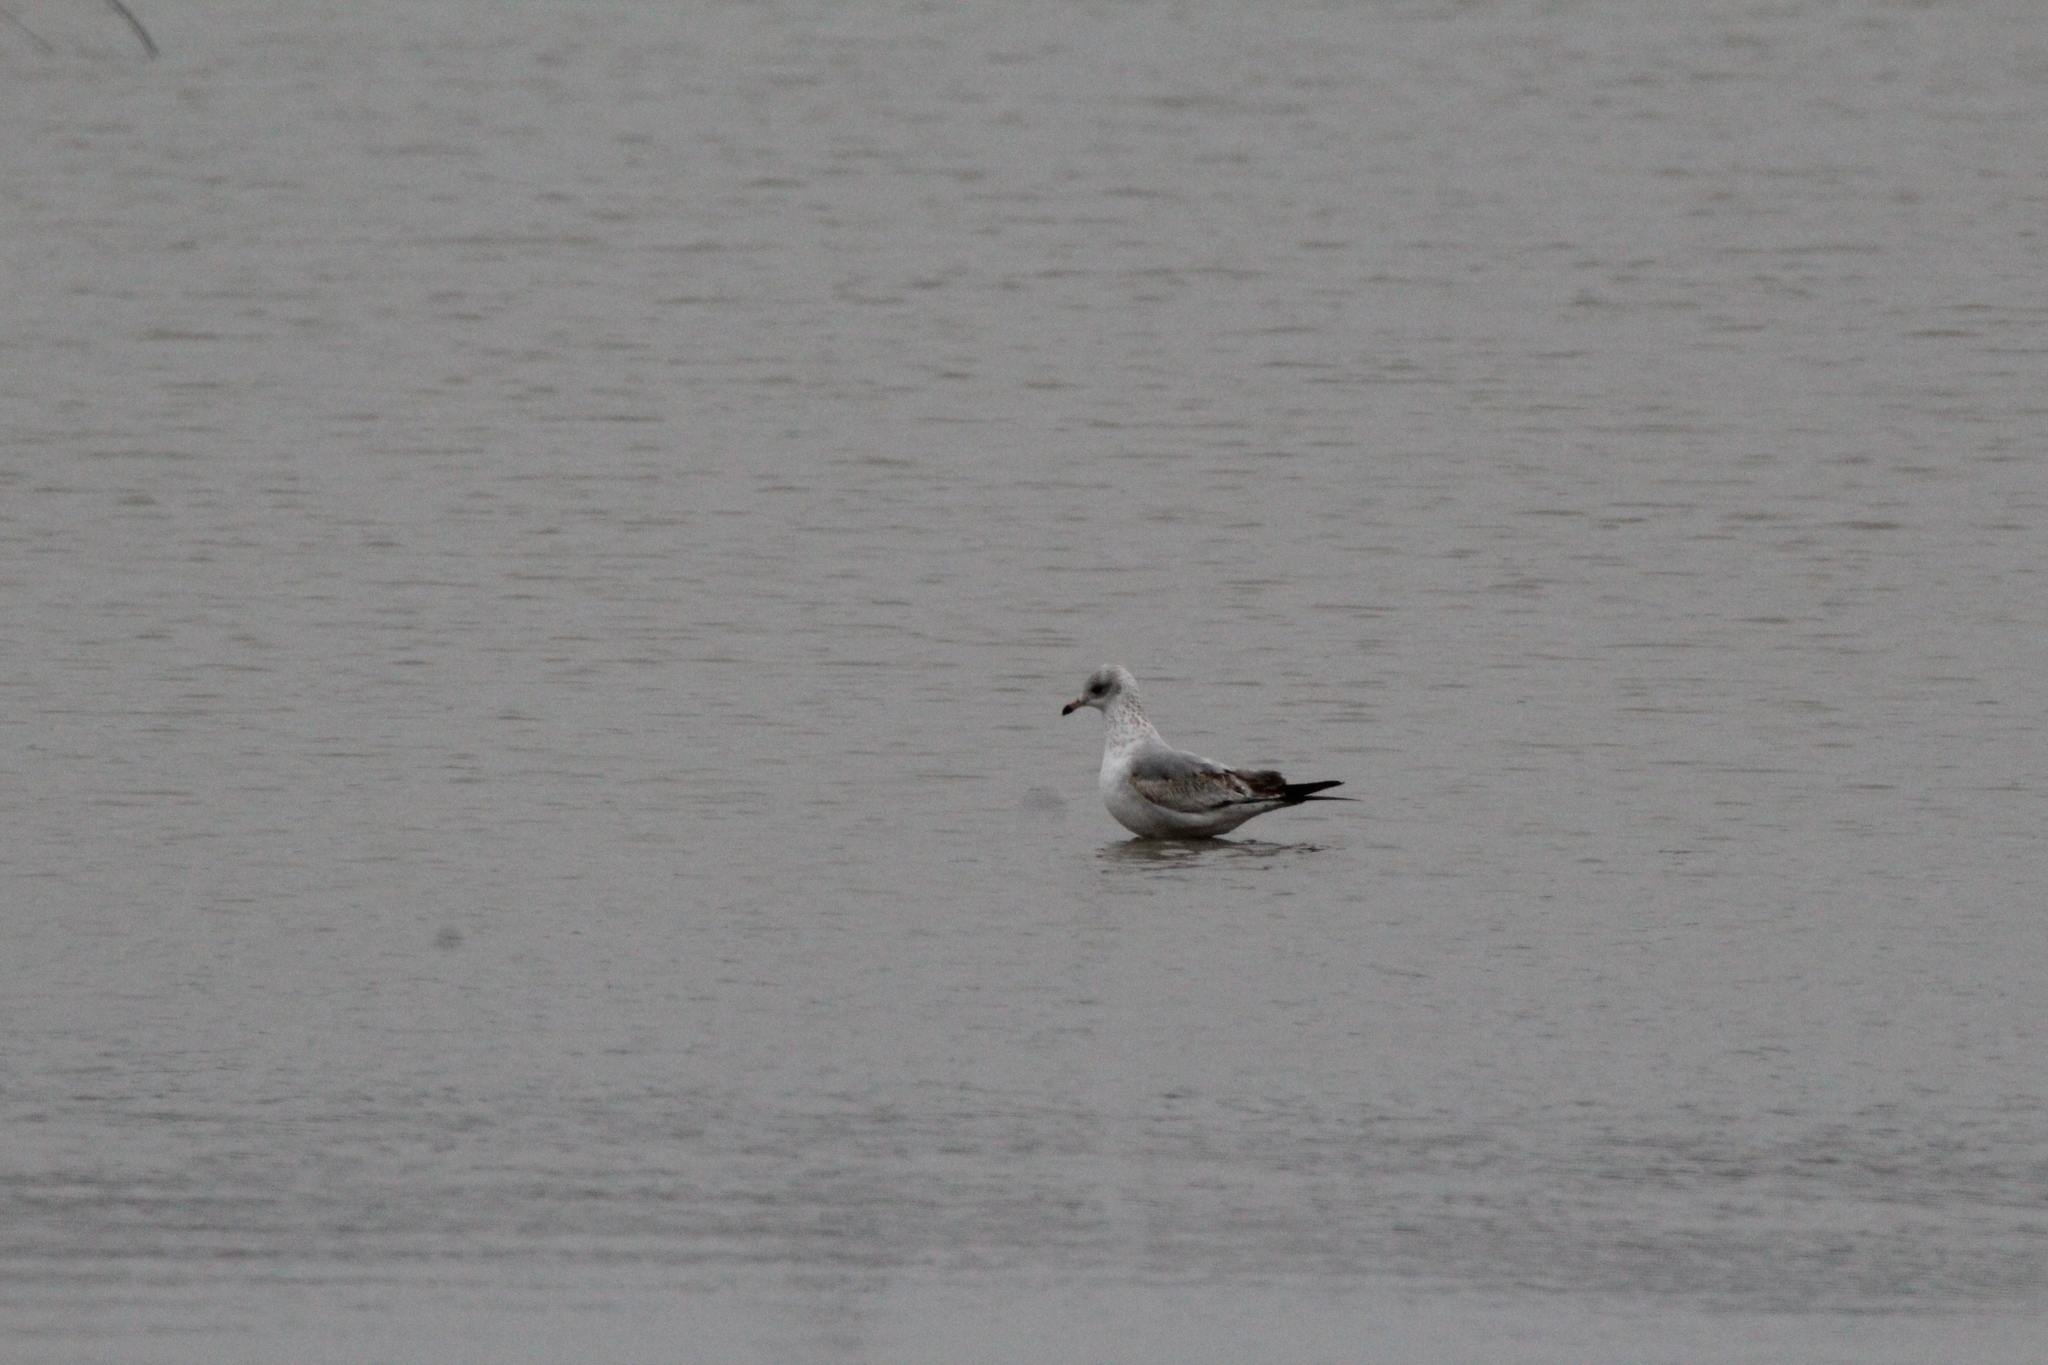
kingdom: Animalia
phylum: Chordata
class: Aves
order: Charadriiformes
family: Laridae
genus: Larus
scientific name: Larus delawarensis
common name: Ring-billed gull
